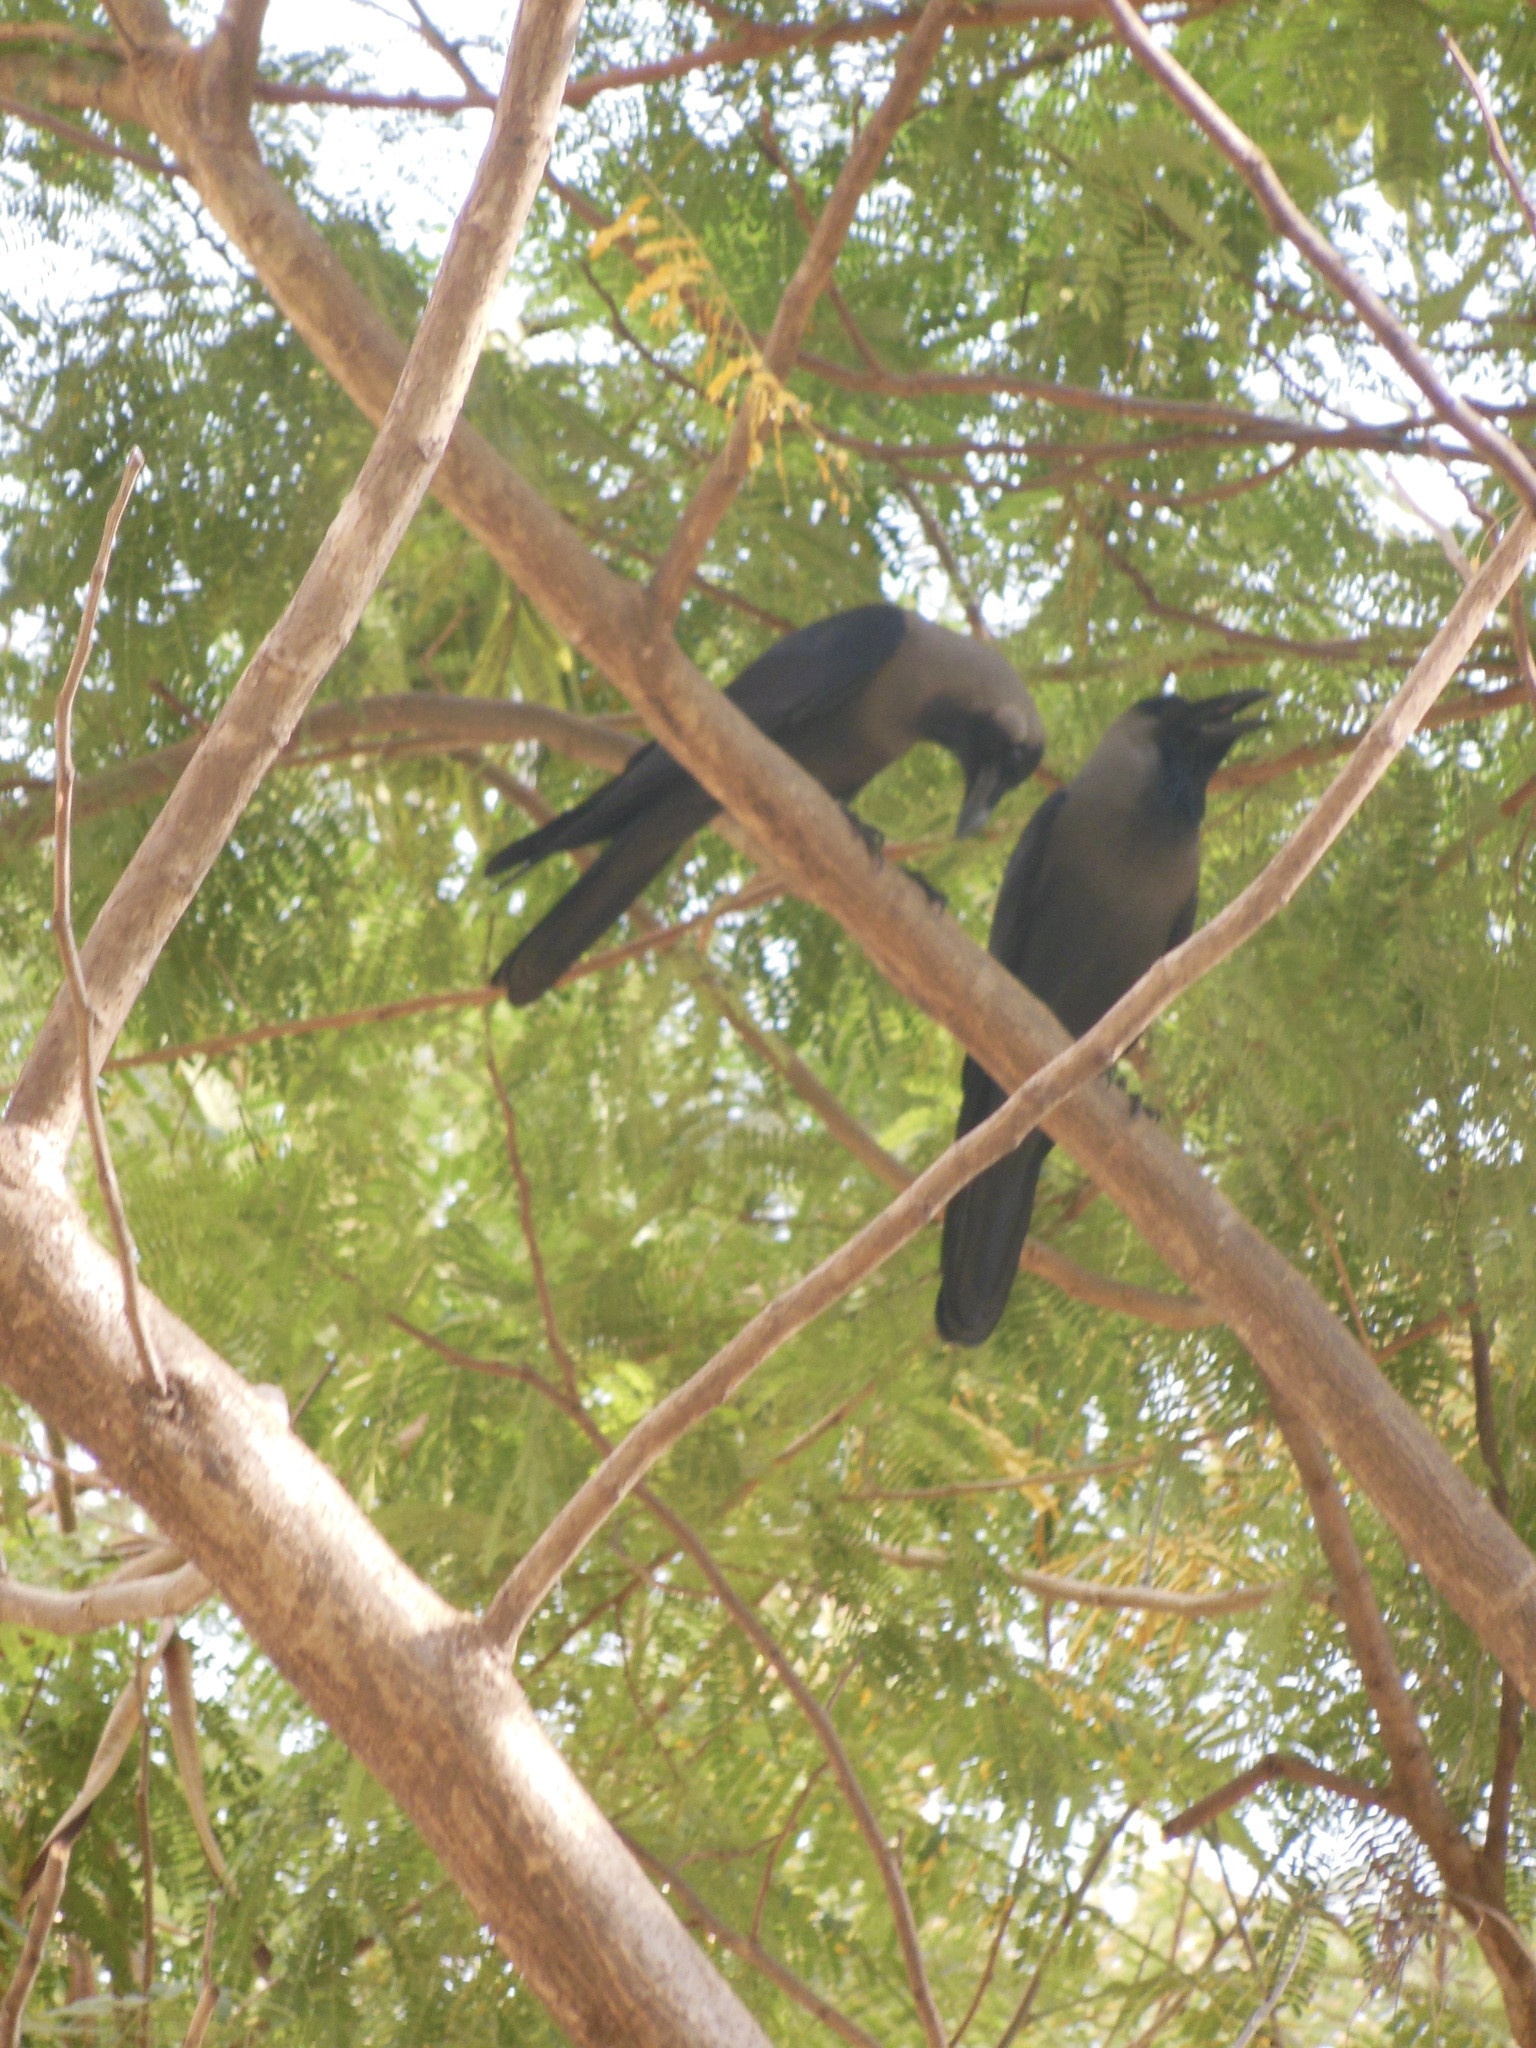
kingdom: Animalia
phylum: Chordata
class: Aves
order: Passeriformes
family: Corvidae
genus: Corvus
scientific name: Corvus splendens
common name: House crow
